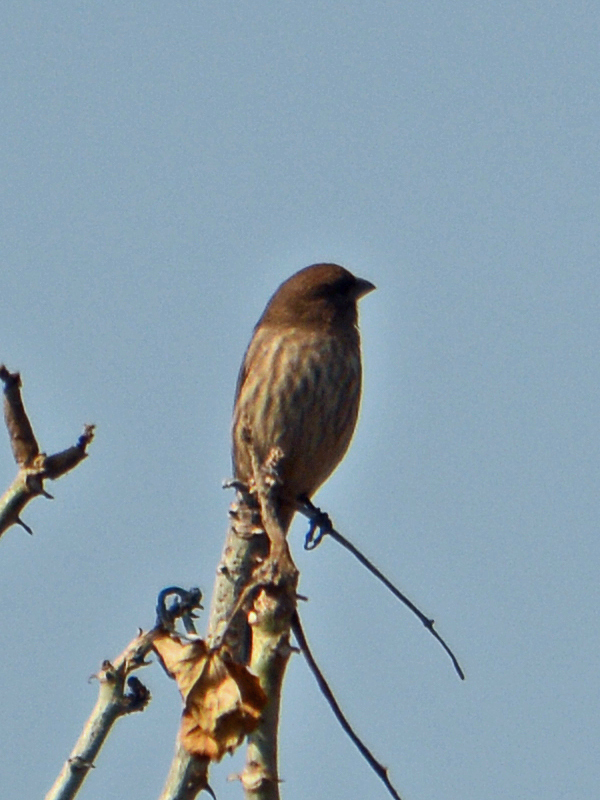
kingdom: Animalia
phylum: Chordata
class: Aves
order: Passeriformes
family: Fringillidae
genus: Haemorhous
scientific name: Haemorhous mexicanus
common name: House finch
